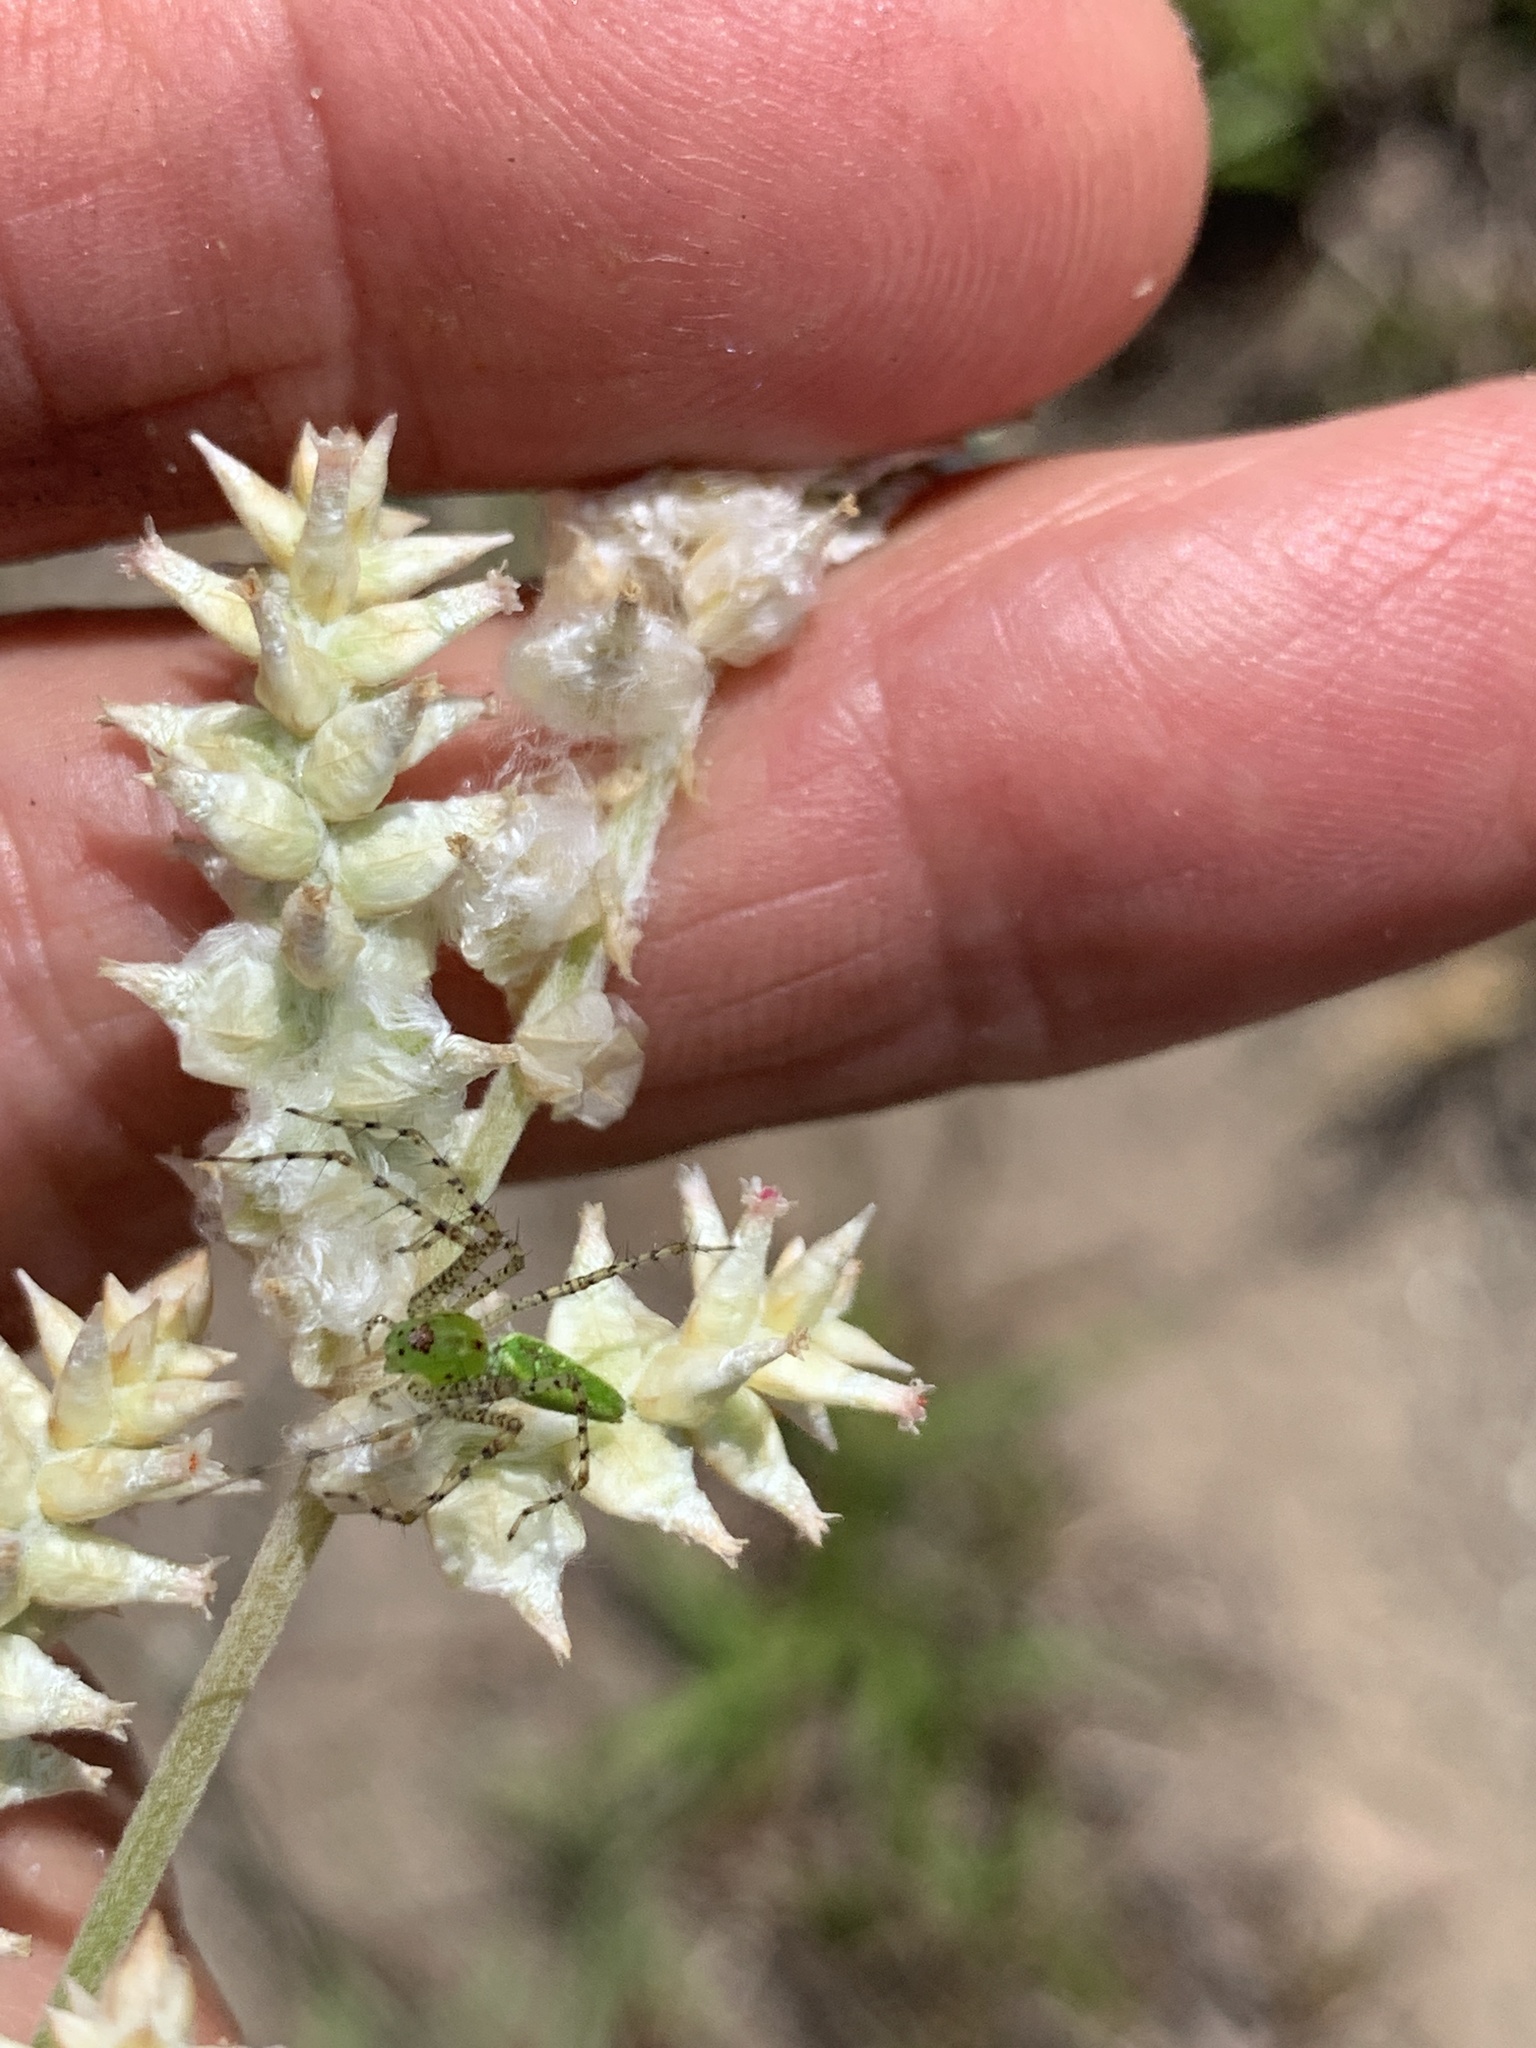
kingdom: Animalia
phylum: Arthropoda
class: Arachnida
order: Araneae
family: Oxyopidae
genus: Peucetia
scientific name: Peucetia viridans
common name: Lynx spiders
